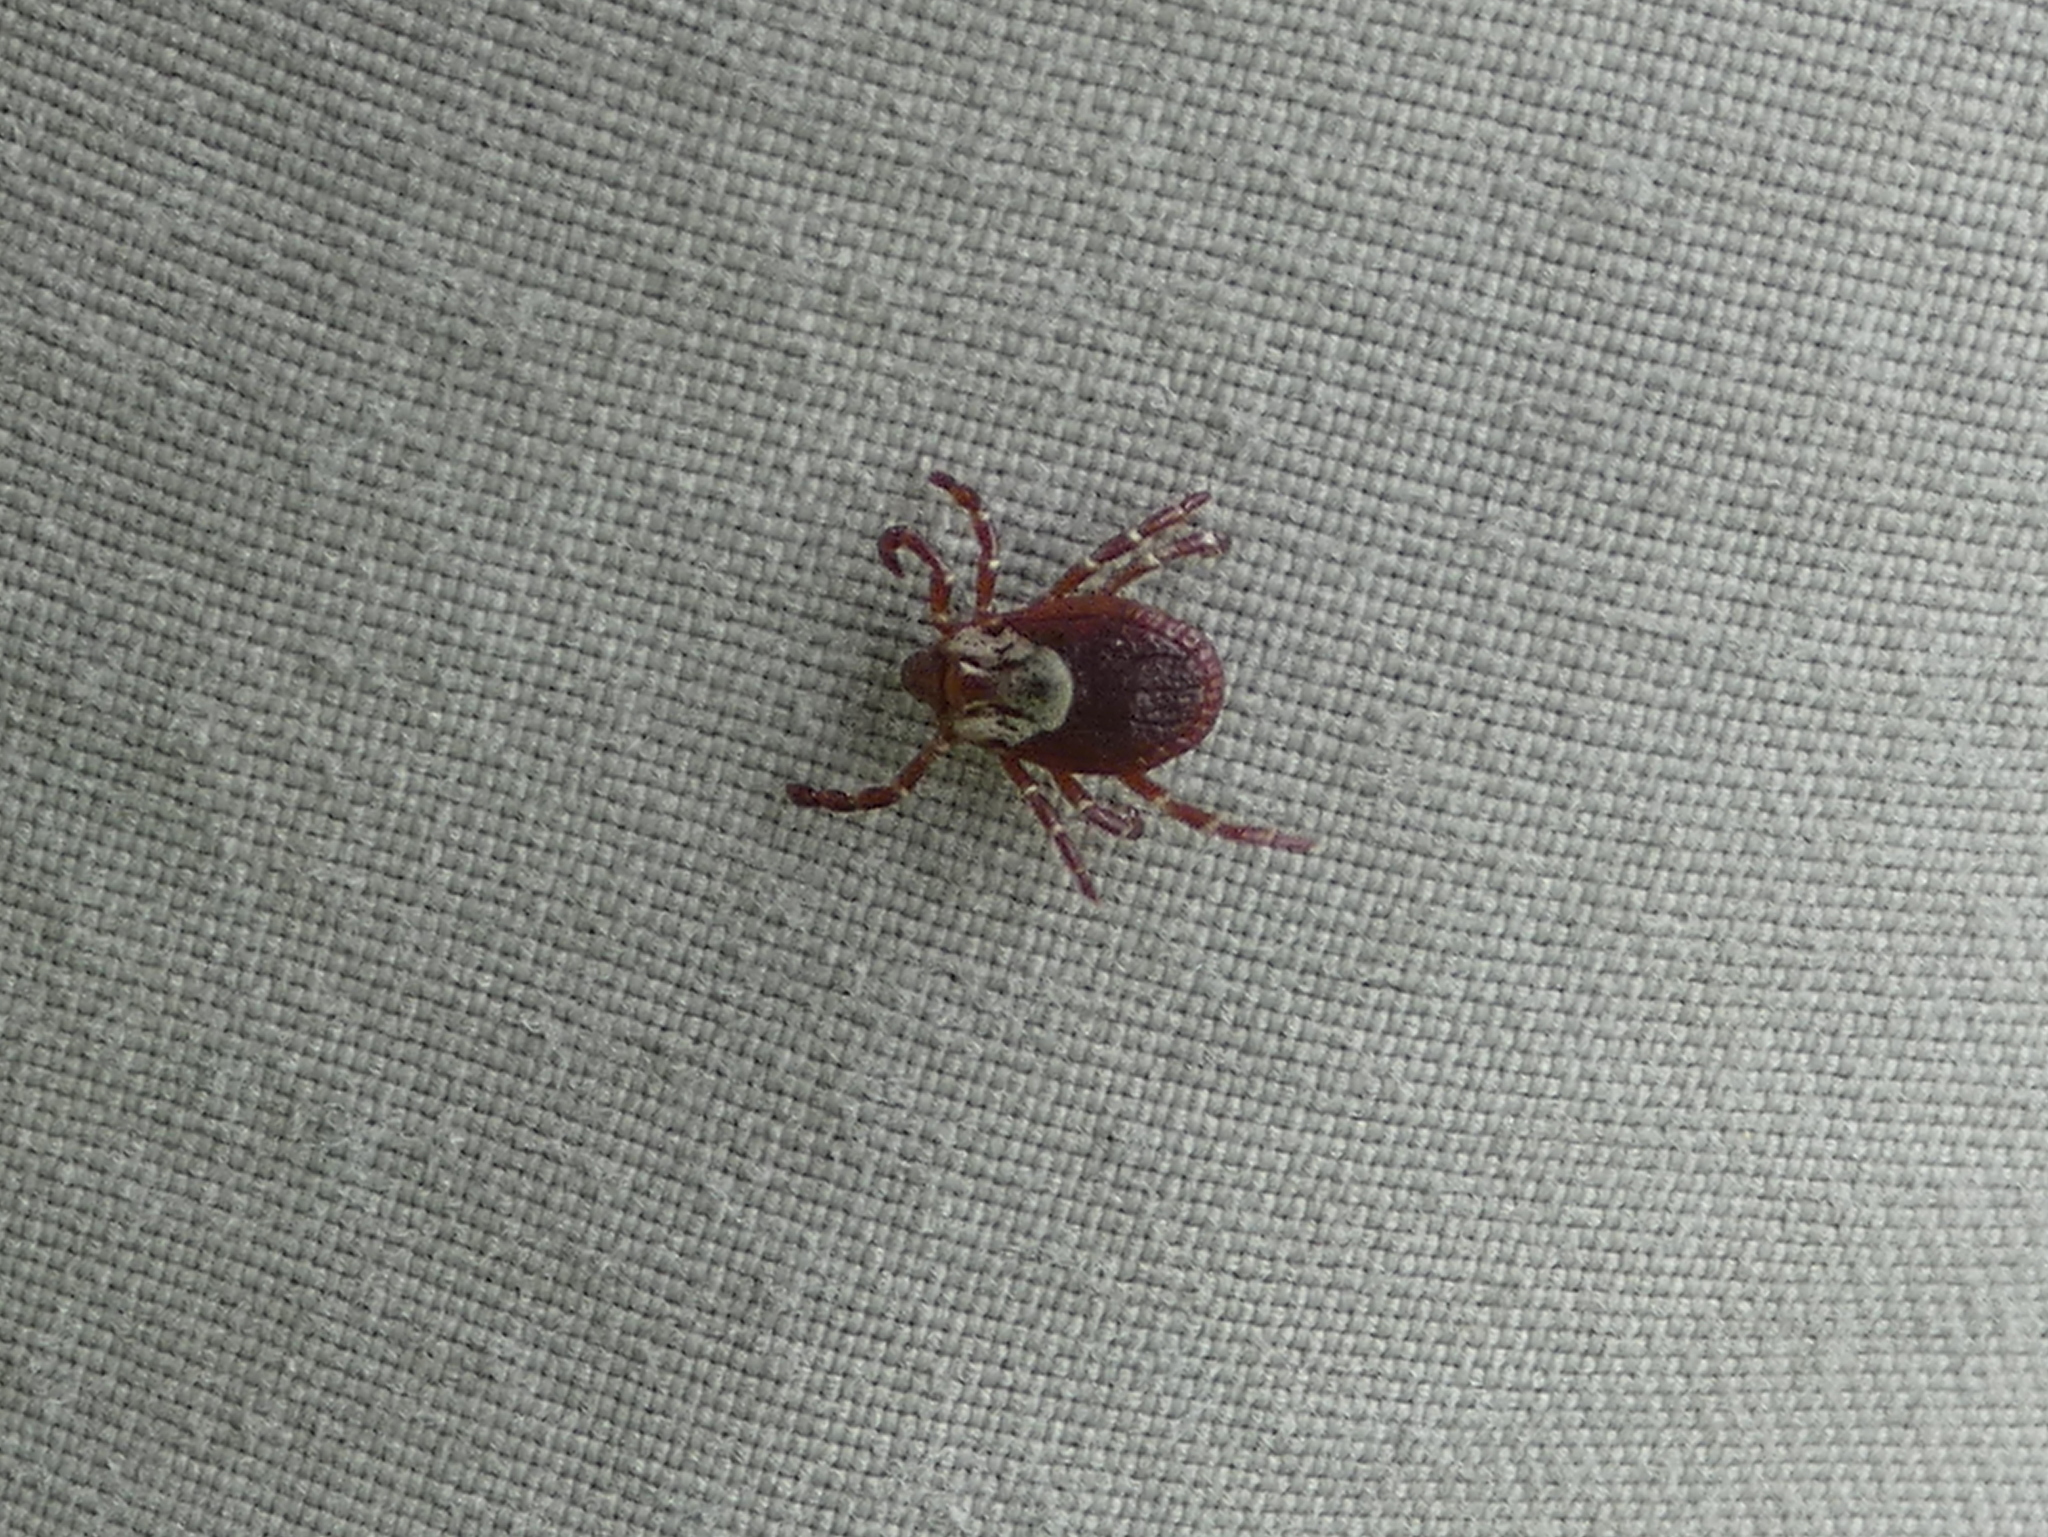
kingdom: Animalia
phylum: Arthropoda
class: Arachnida
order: Ixodida
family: Ixodidae
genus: Dermacentor
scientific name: Dermacentor variabilis
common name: American dog tick
